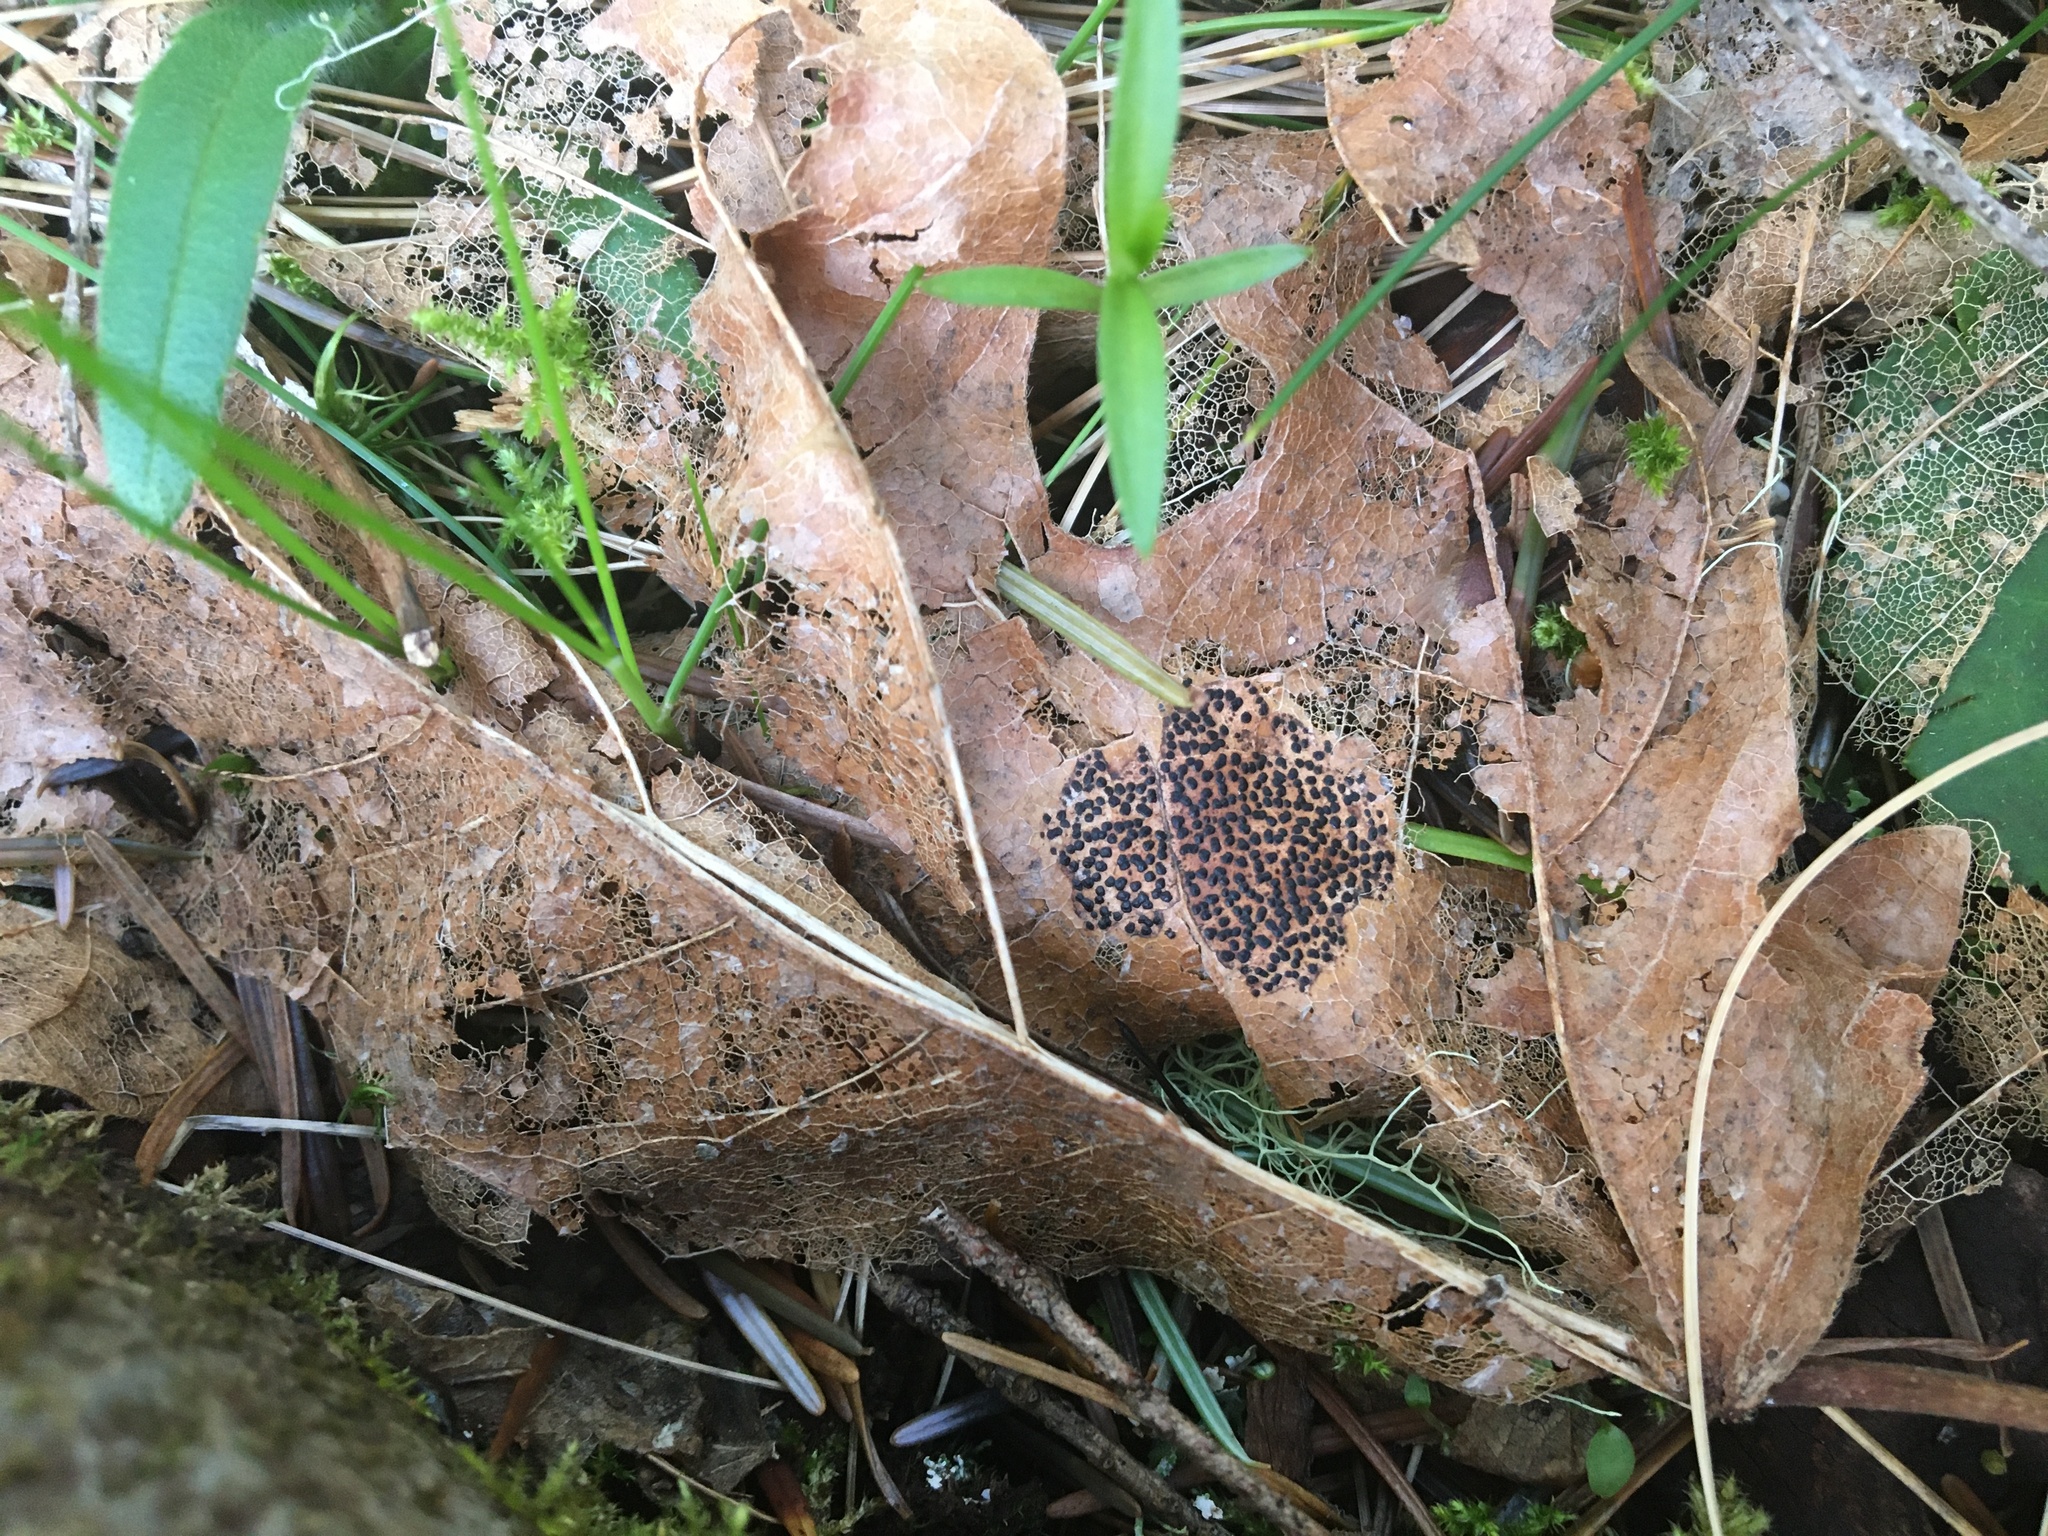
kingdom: Fungi
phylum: Ascomycota
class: Leotiomycetes
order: Rhytismatales
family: Rhytismataceae
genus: Rhytisma
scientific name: Rhytisma punctatum
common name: Speckled tar spot
